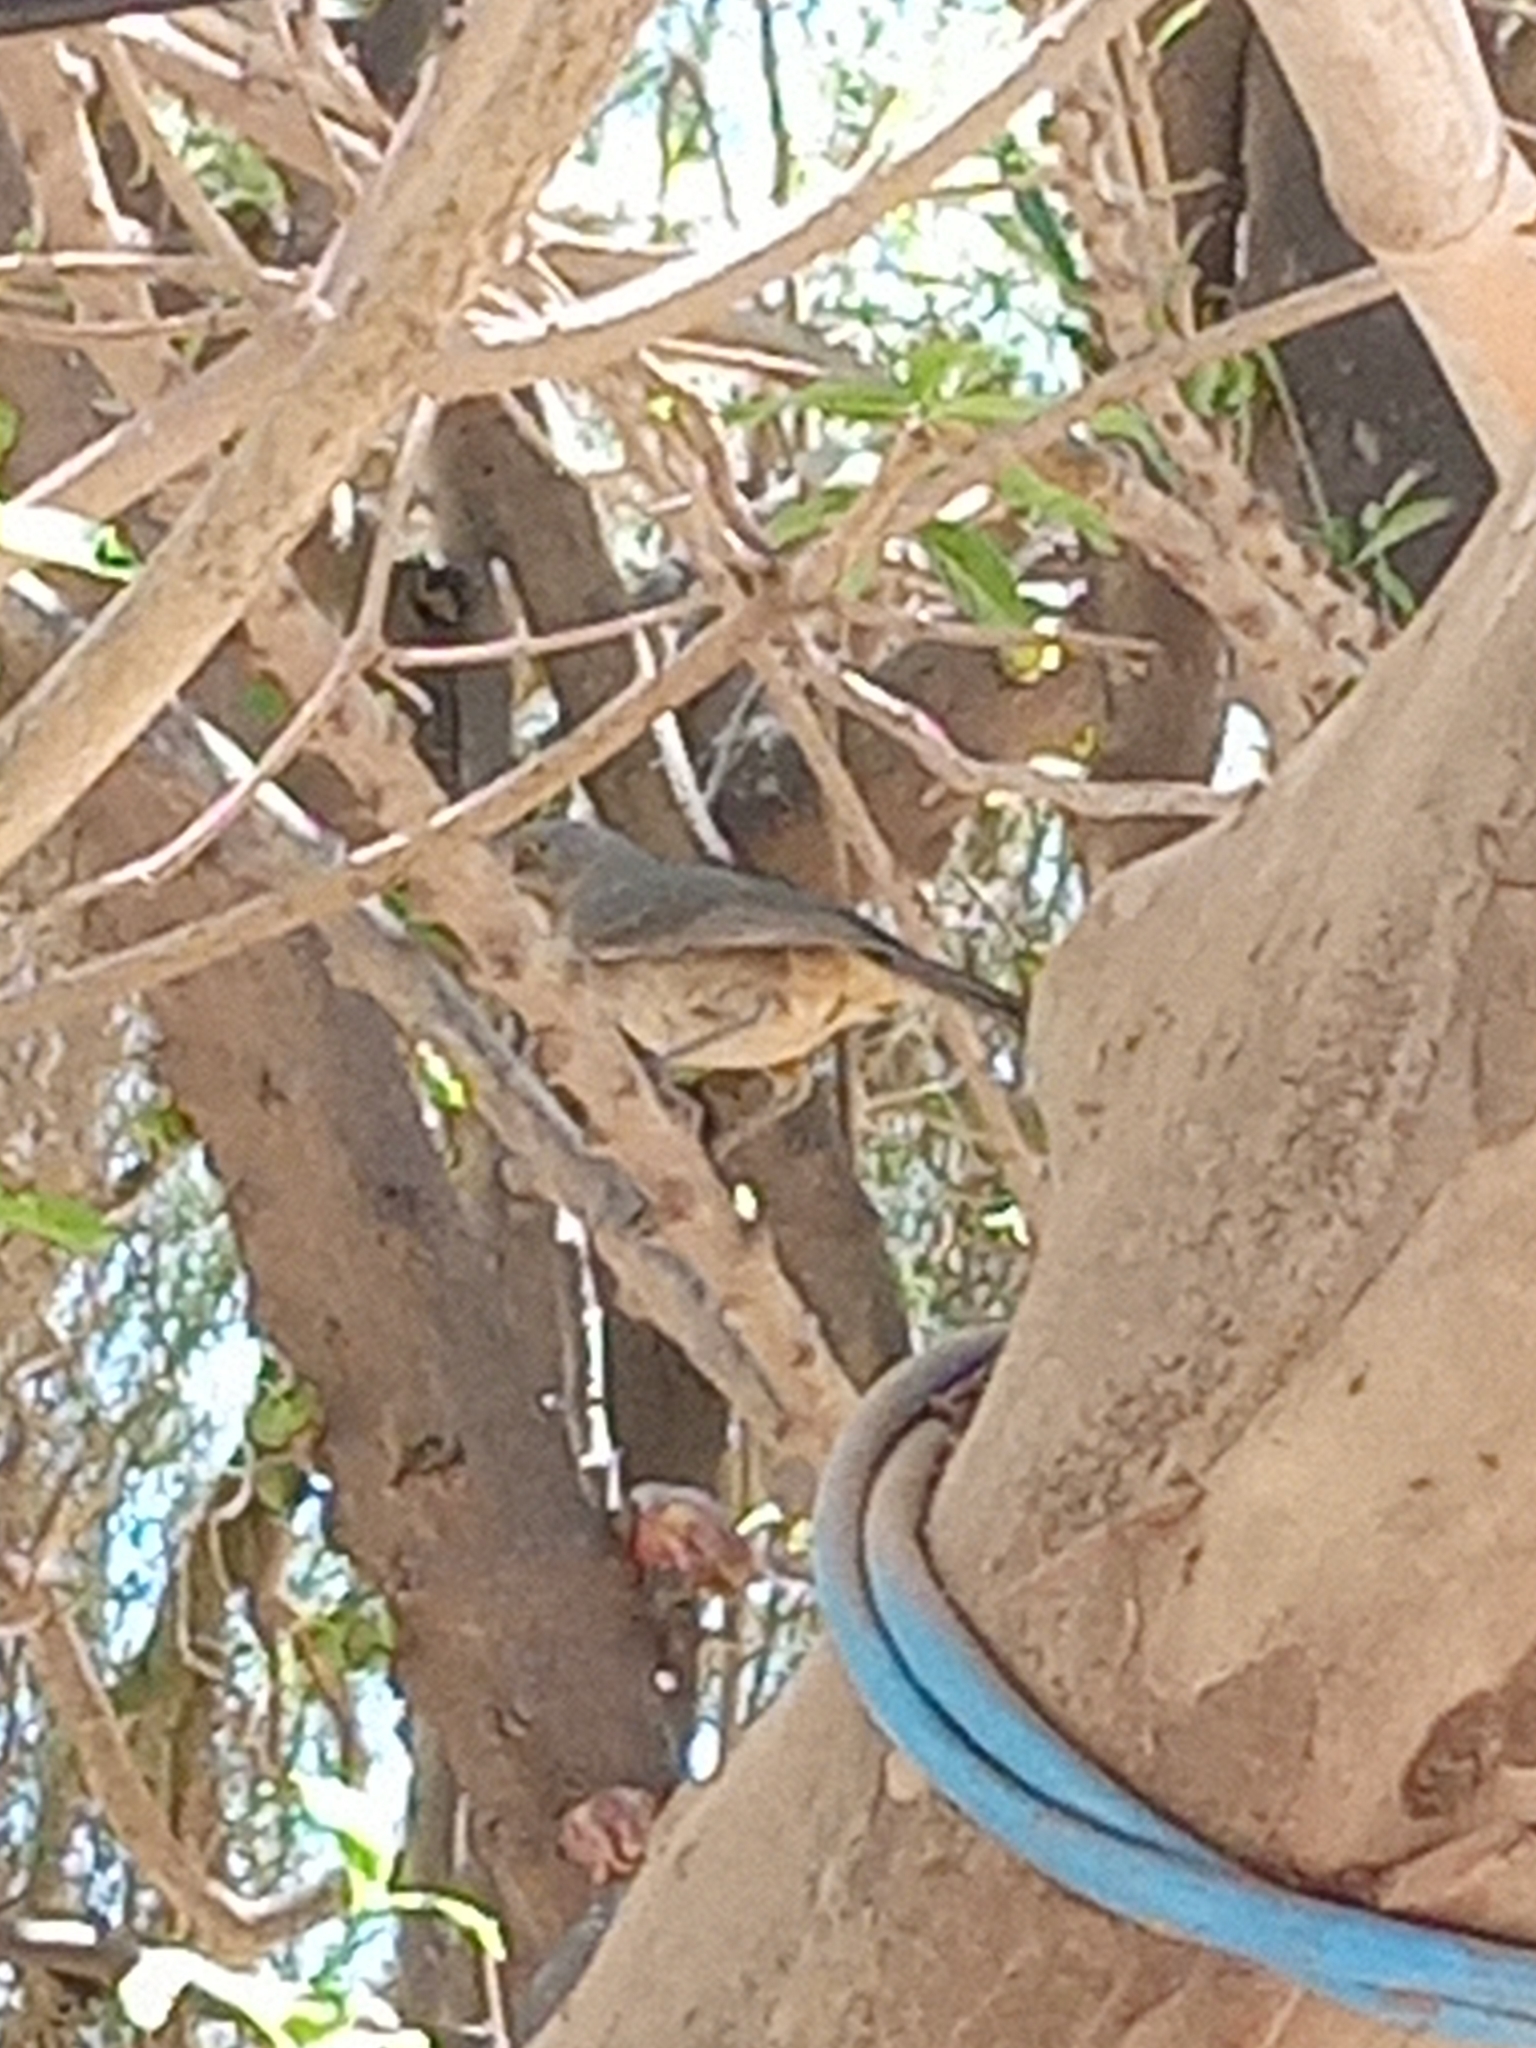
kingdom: Animalia
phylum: Chordata
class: Aves
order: Passeriformes
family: Mimidae
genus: Toxostoma
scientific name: Toxostoma curvirostre
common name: Curve-billed thrasher
